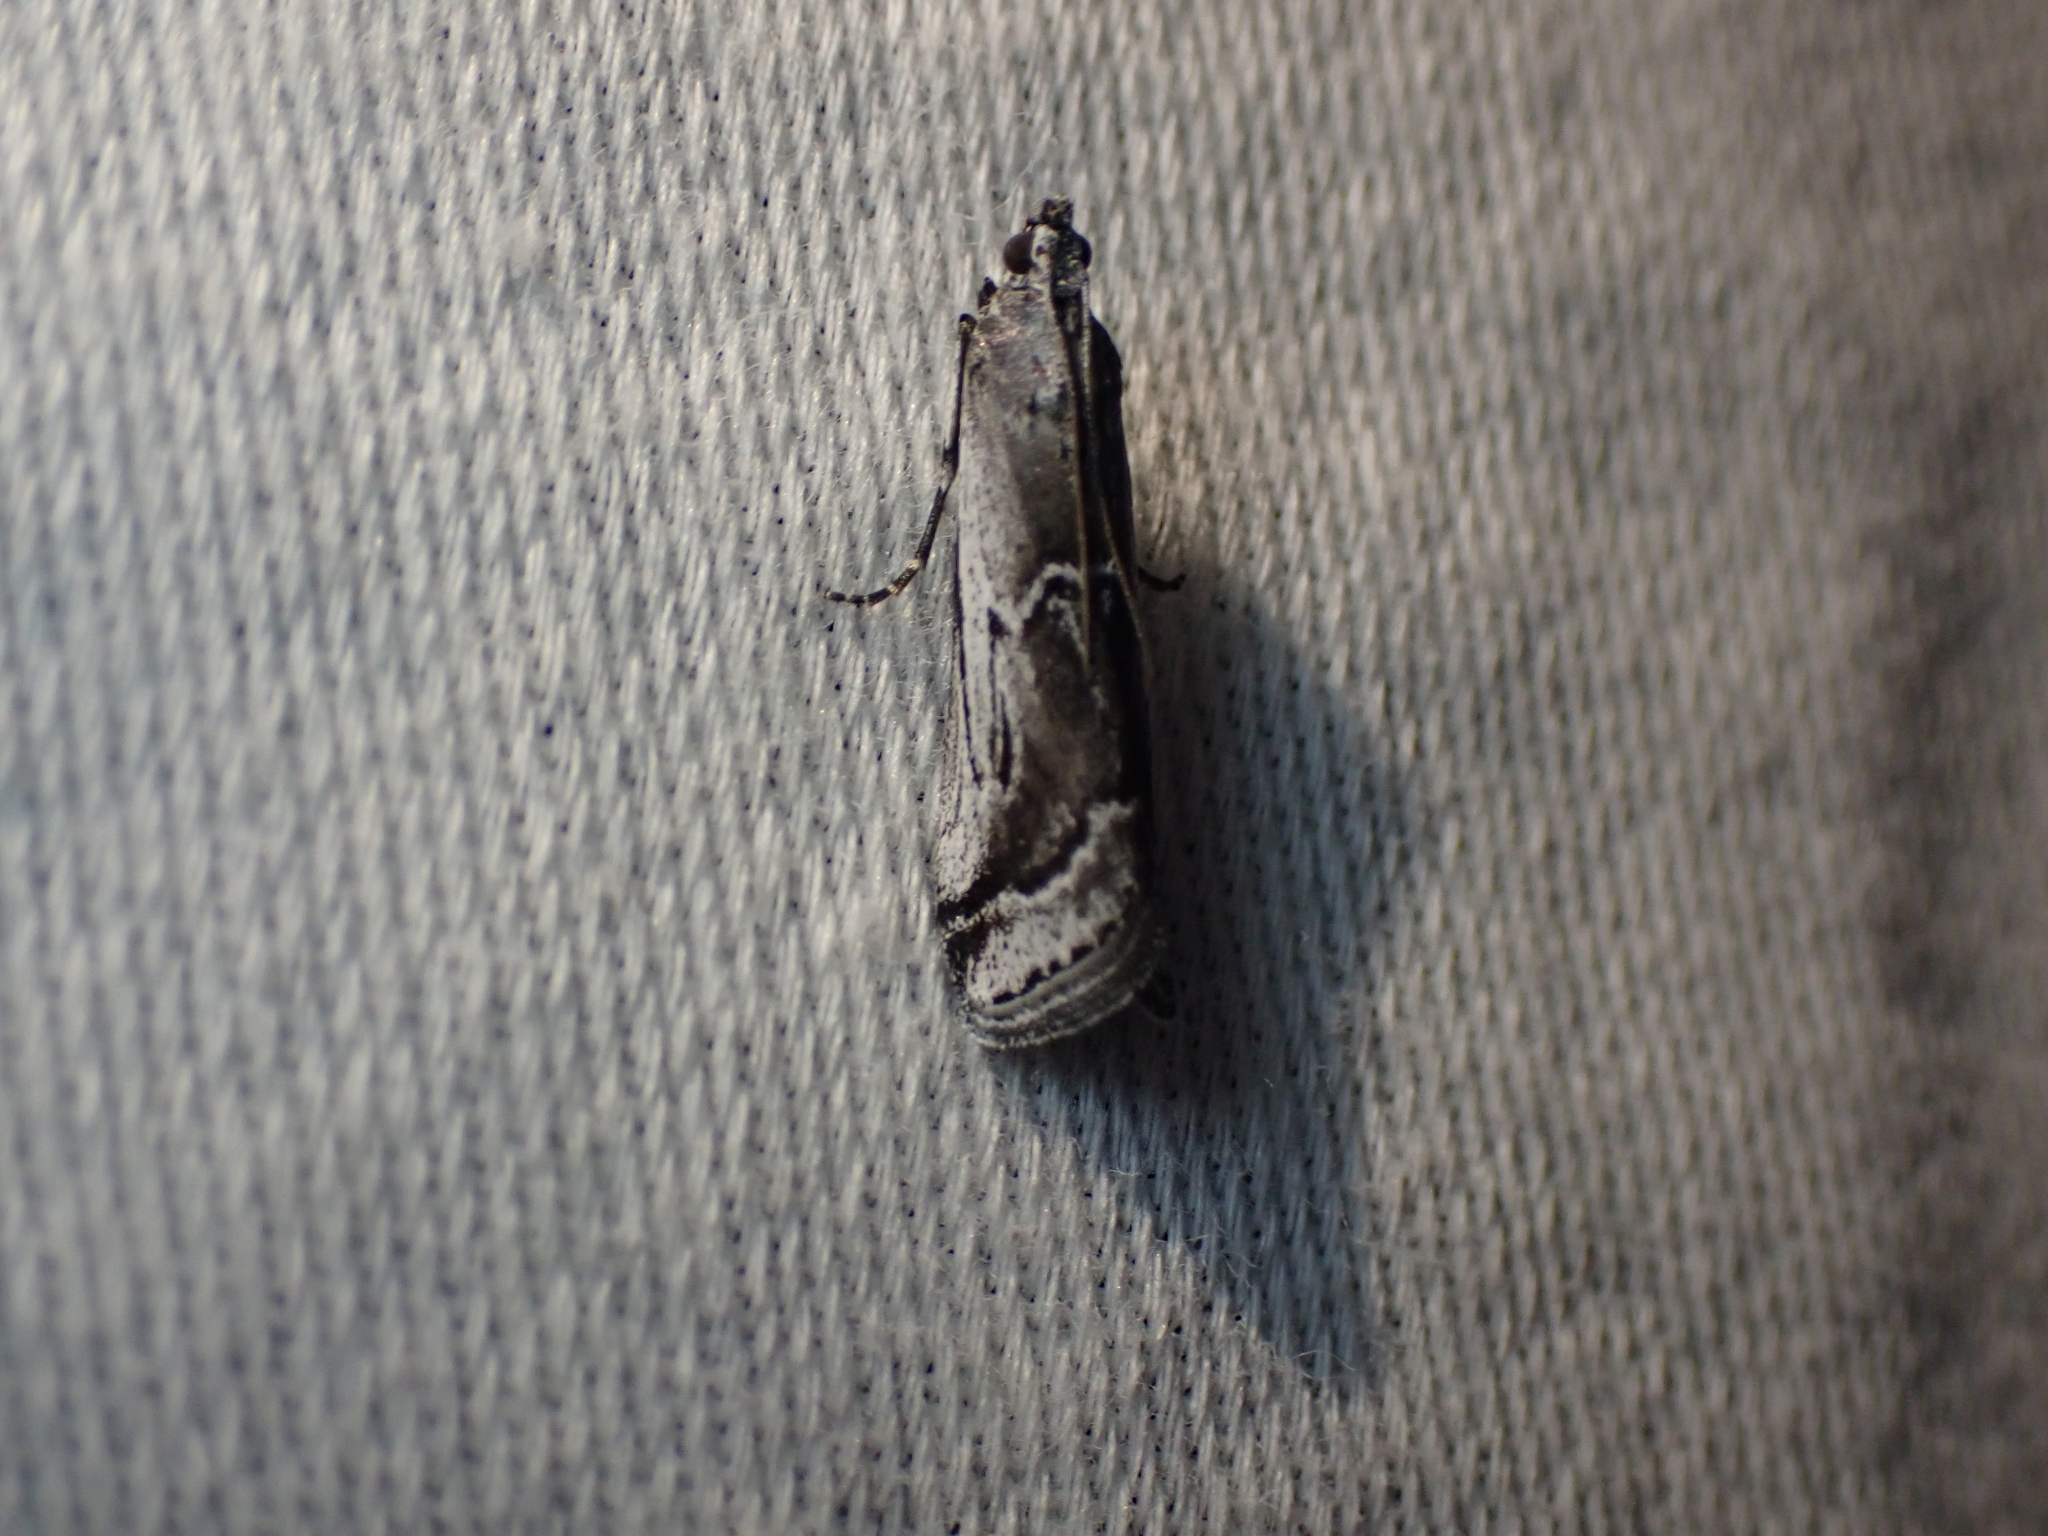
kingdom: Animalia
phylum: Arthropoda
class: Insecta
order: Lepidoptera
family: Pyralidae
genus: Ambesa
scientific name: Ambesa walsinghami
